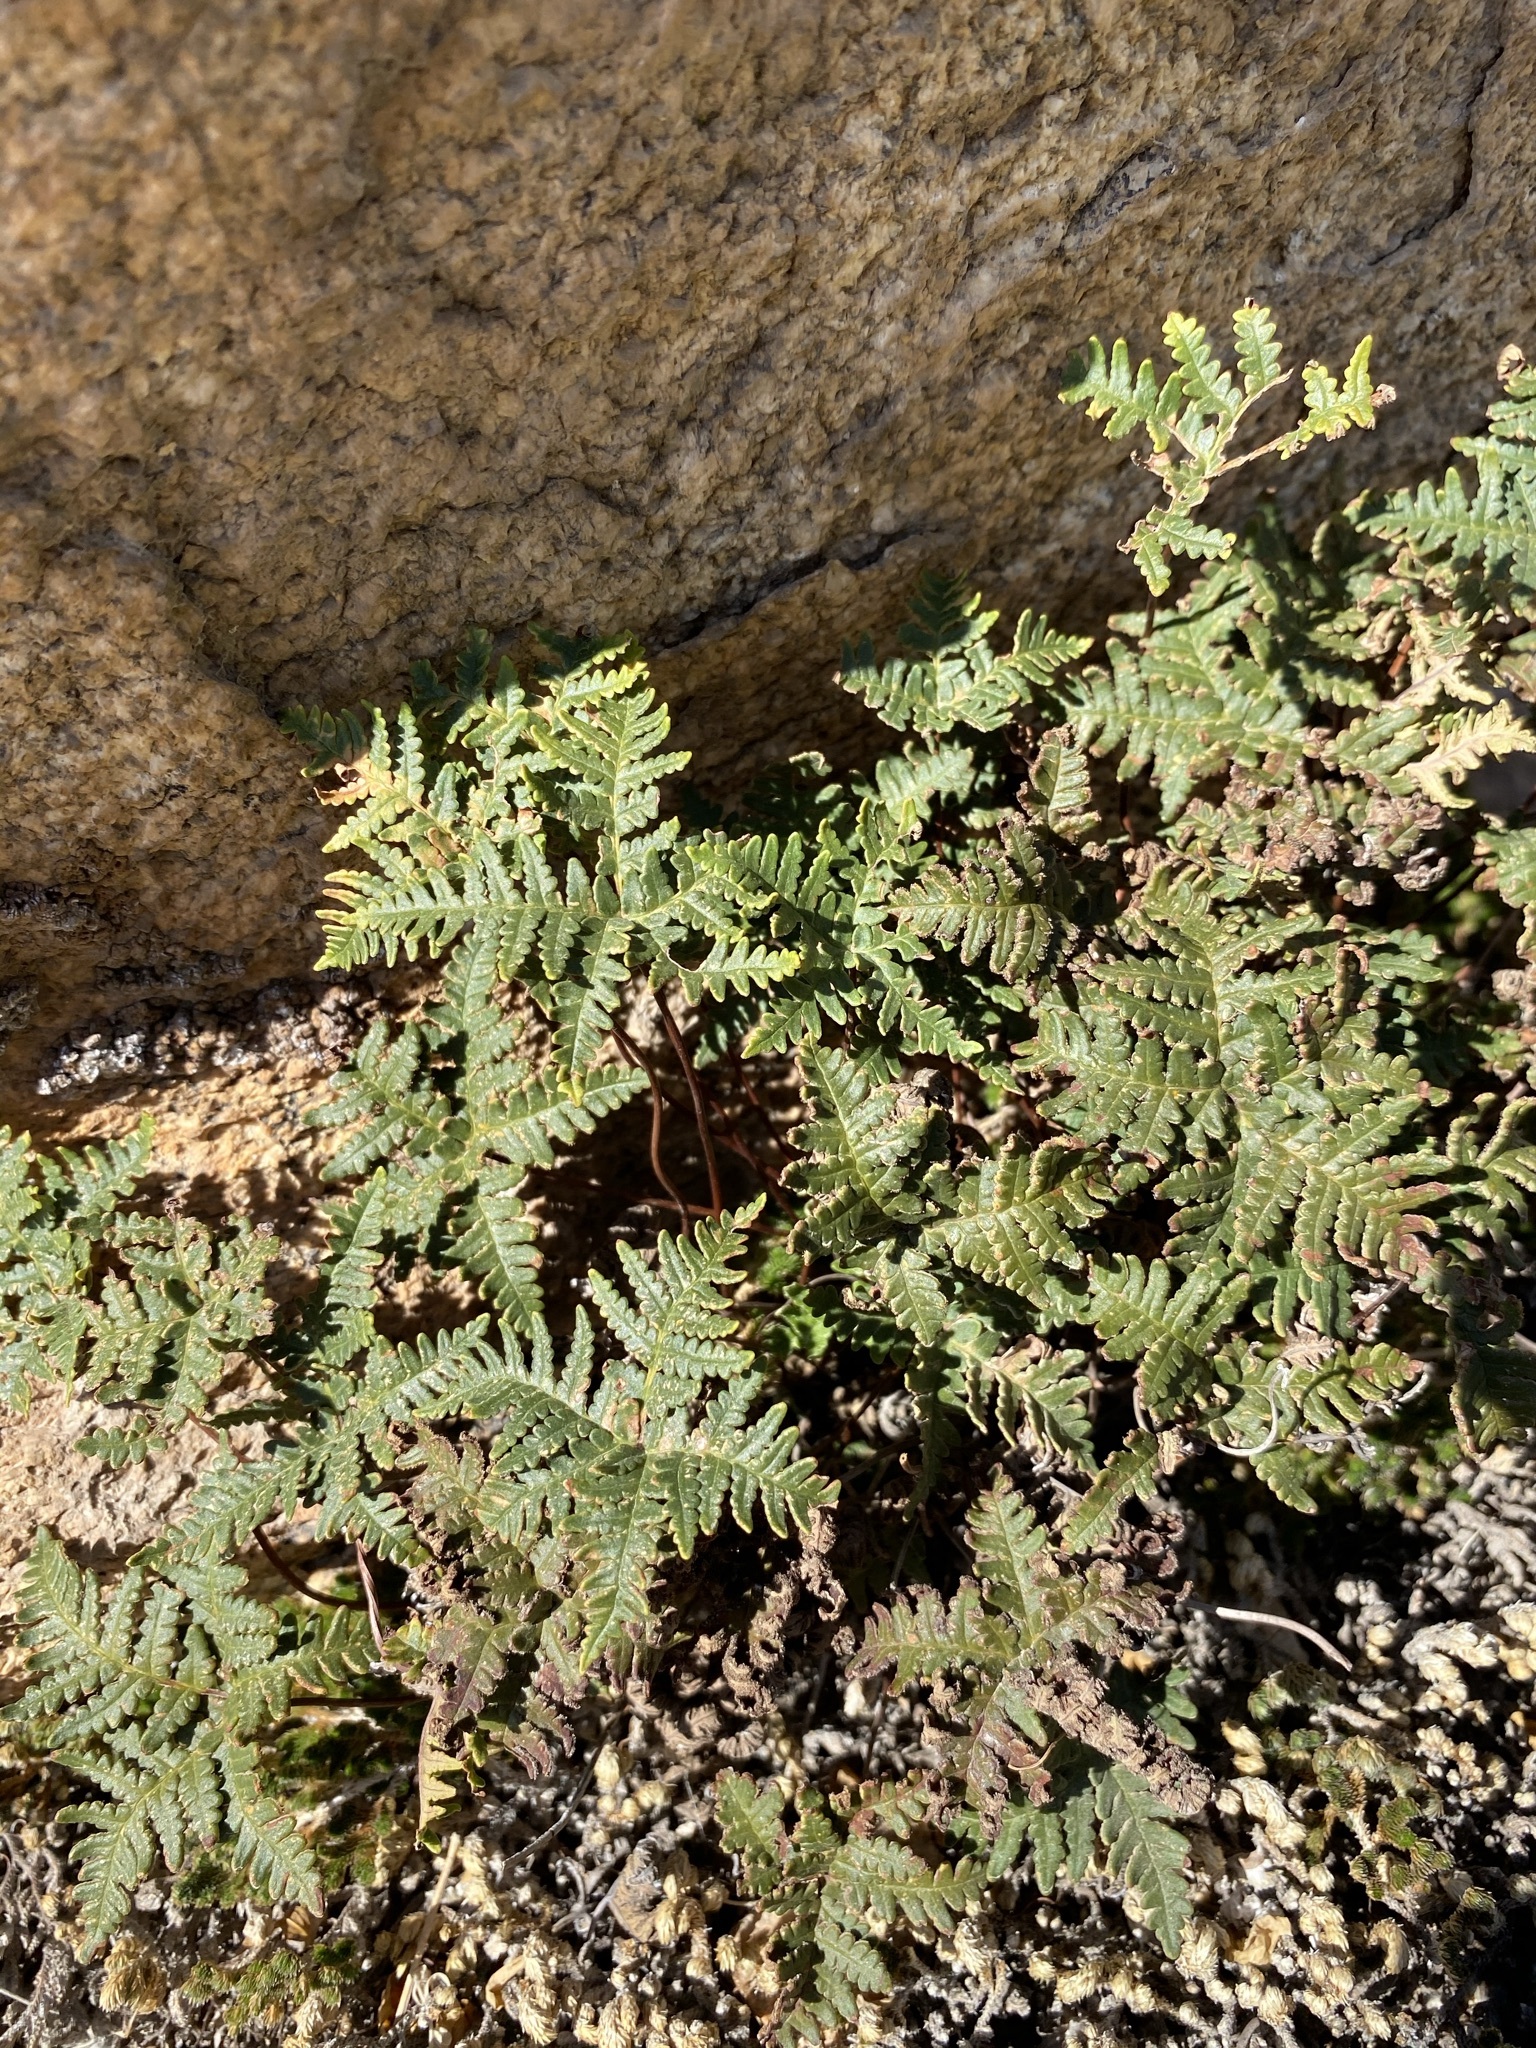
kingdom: Plantae
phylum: Tracheophyta
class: Polypodiopsida
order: Polypodiales
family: Pteridaceae
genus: Notholaena
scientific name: Notholaena standleyi
